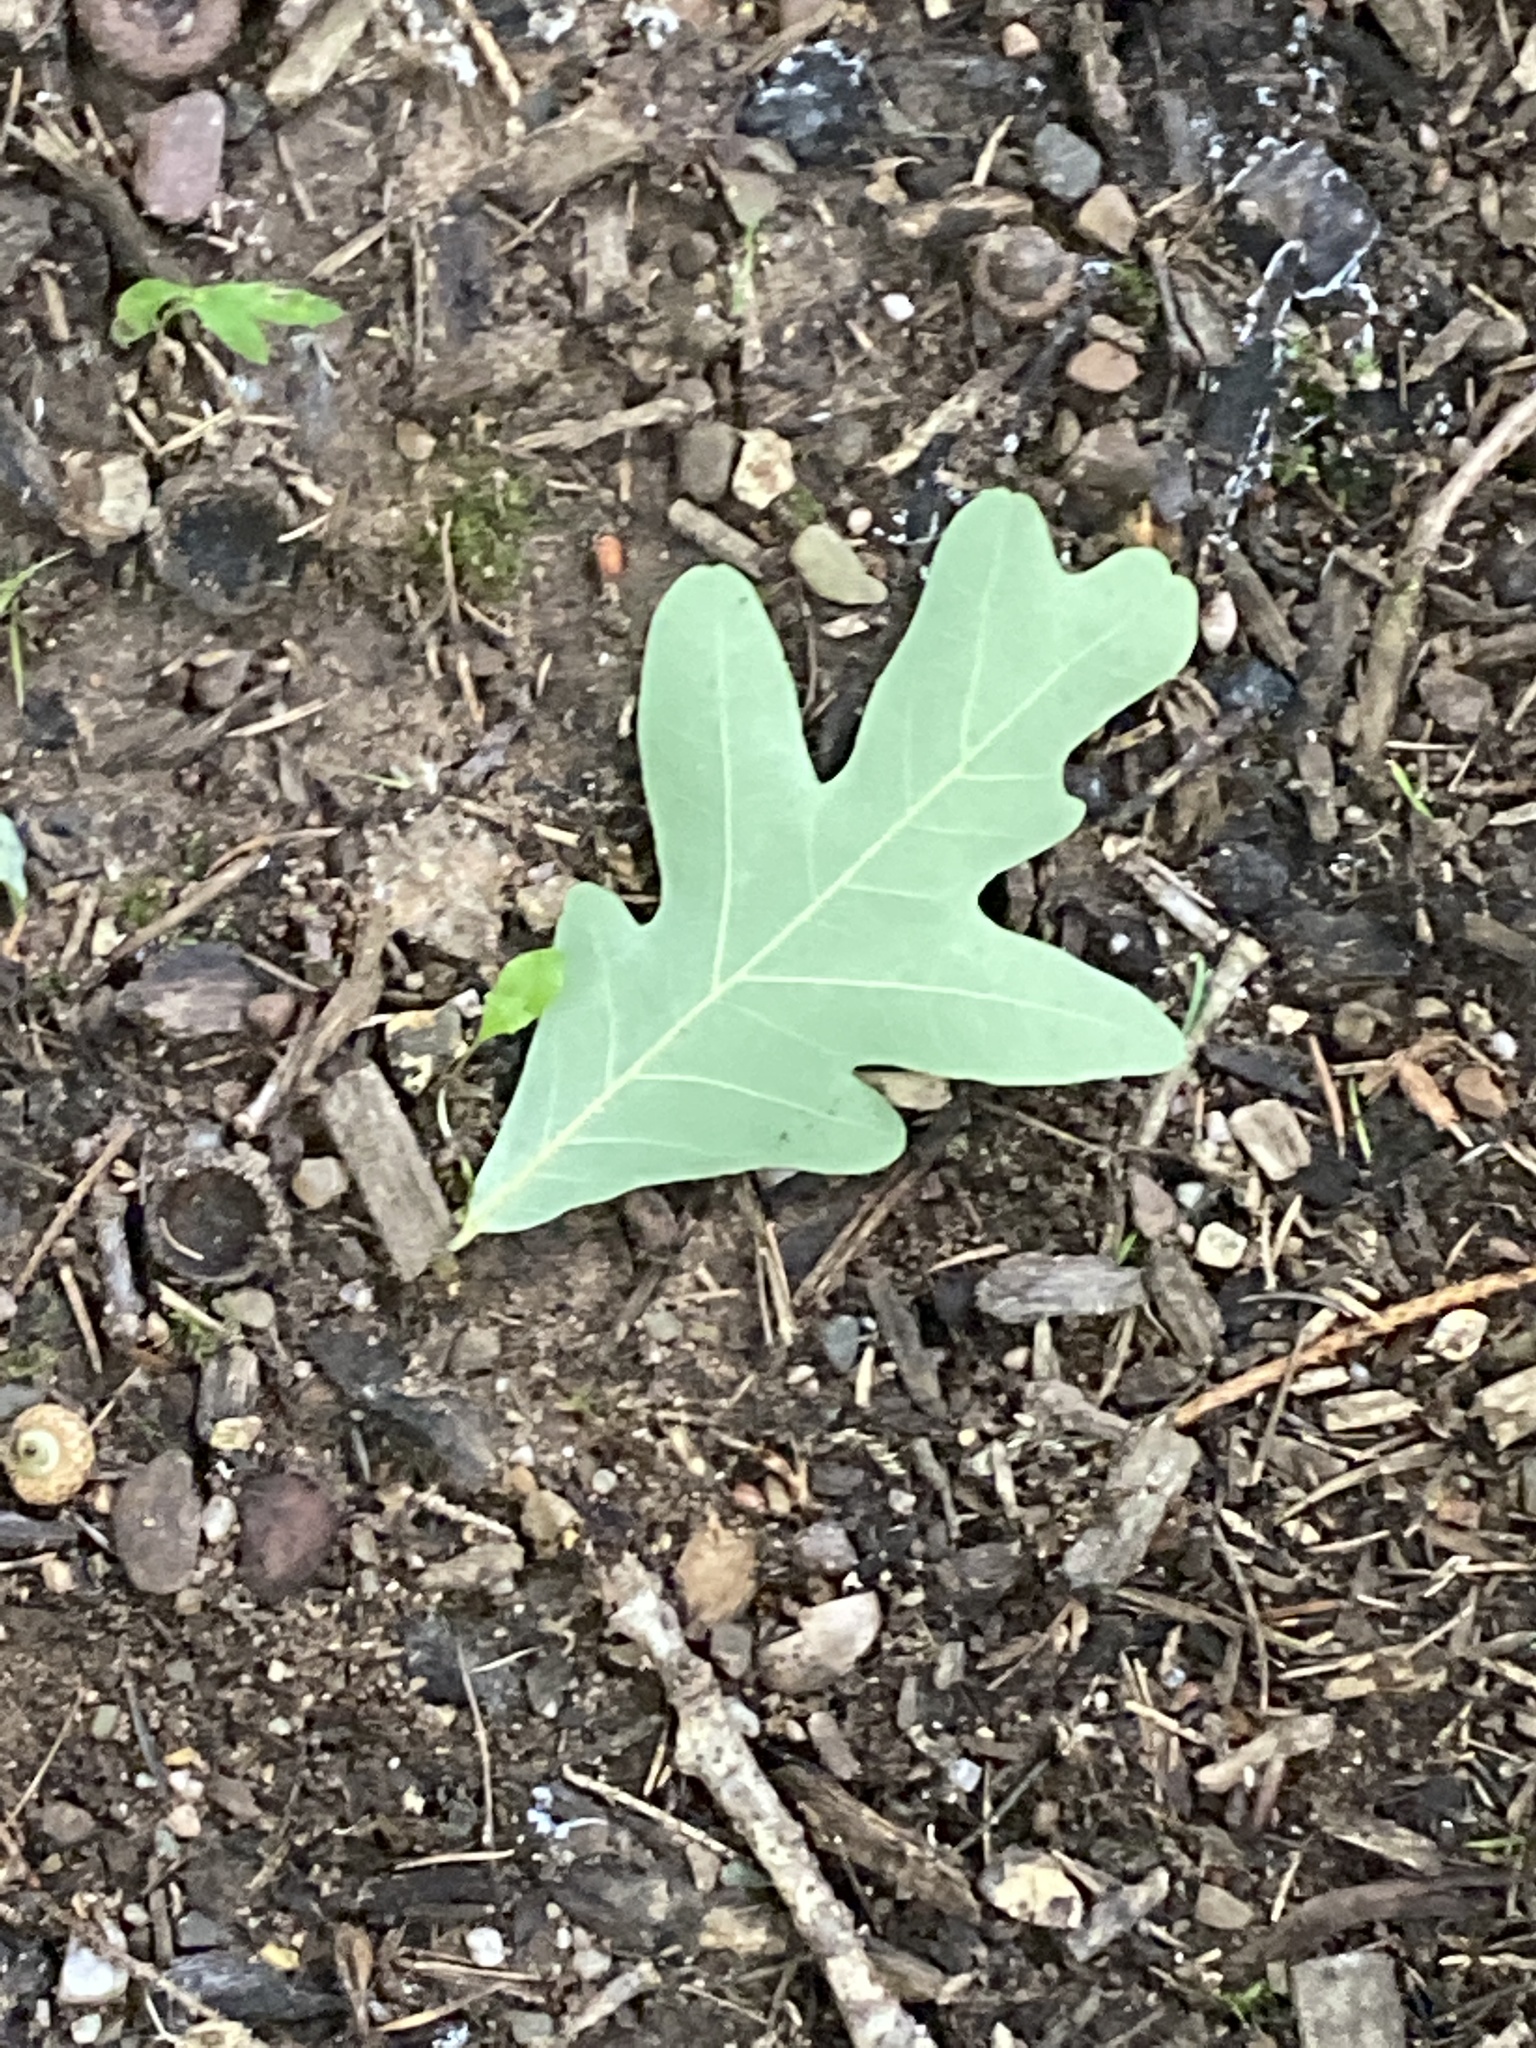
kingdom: Plantae
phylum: Tracheophyta
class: Magnoliopsida
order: Fagales
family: Fagaceae
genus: Quercus
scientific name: Quercus alba
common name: White oak
